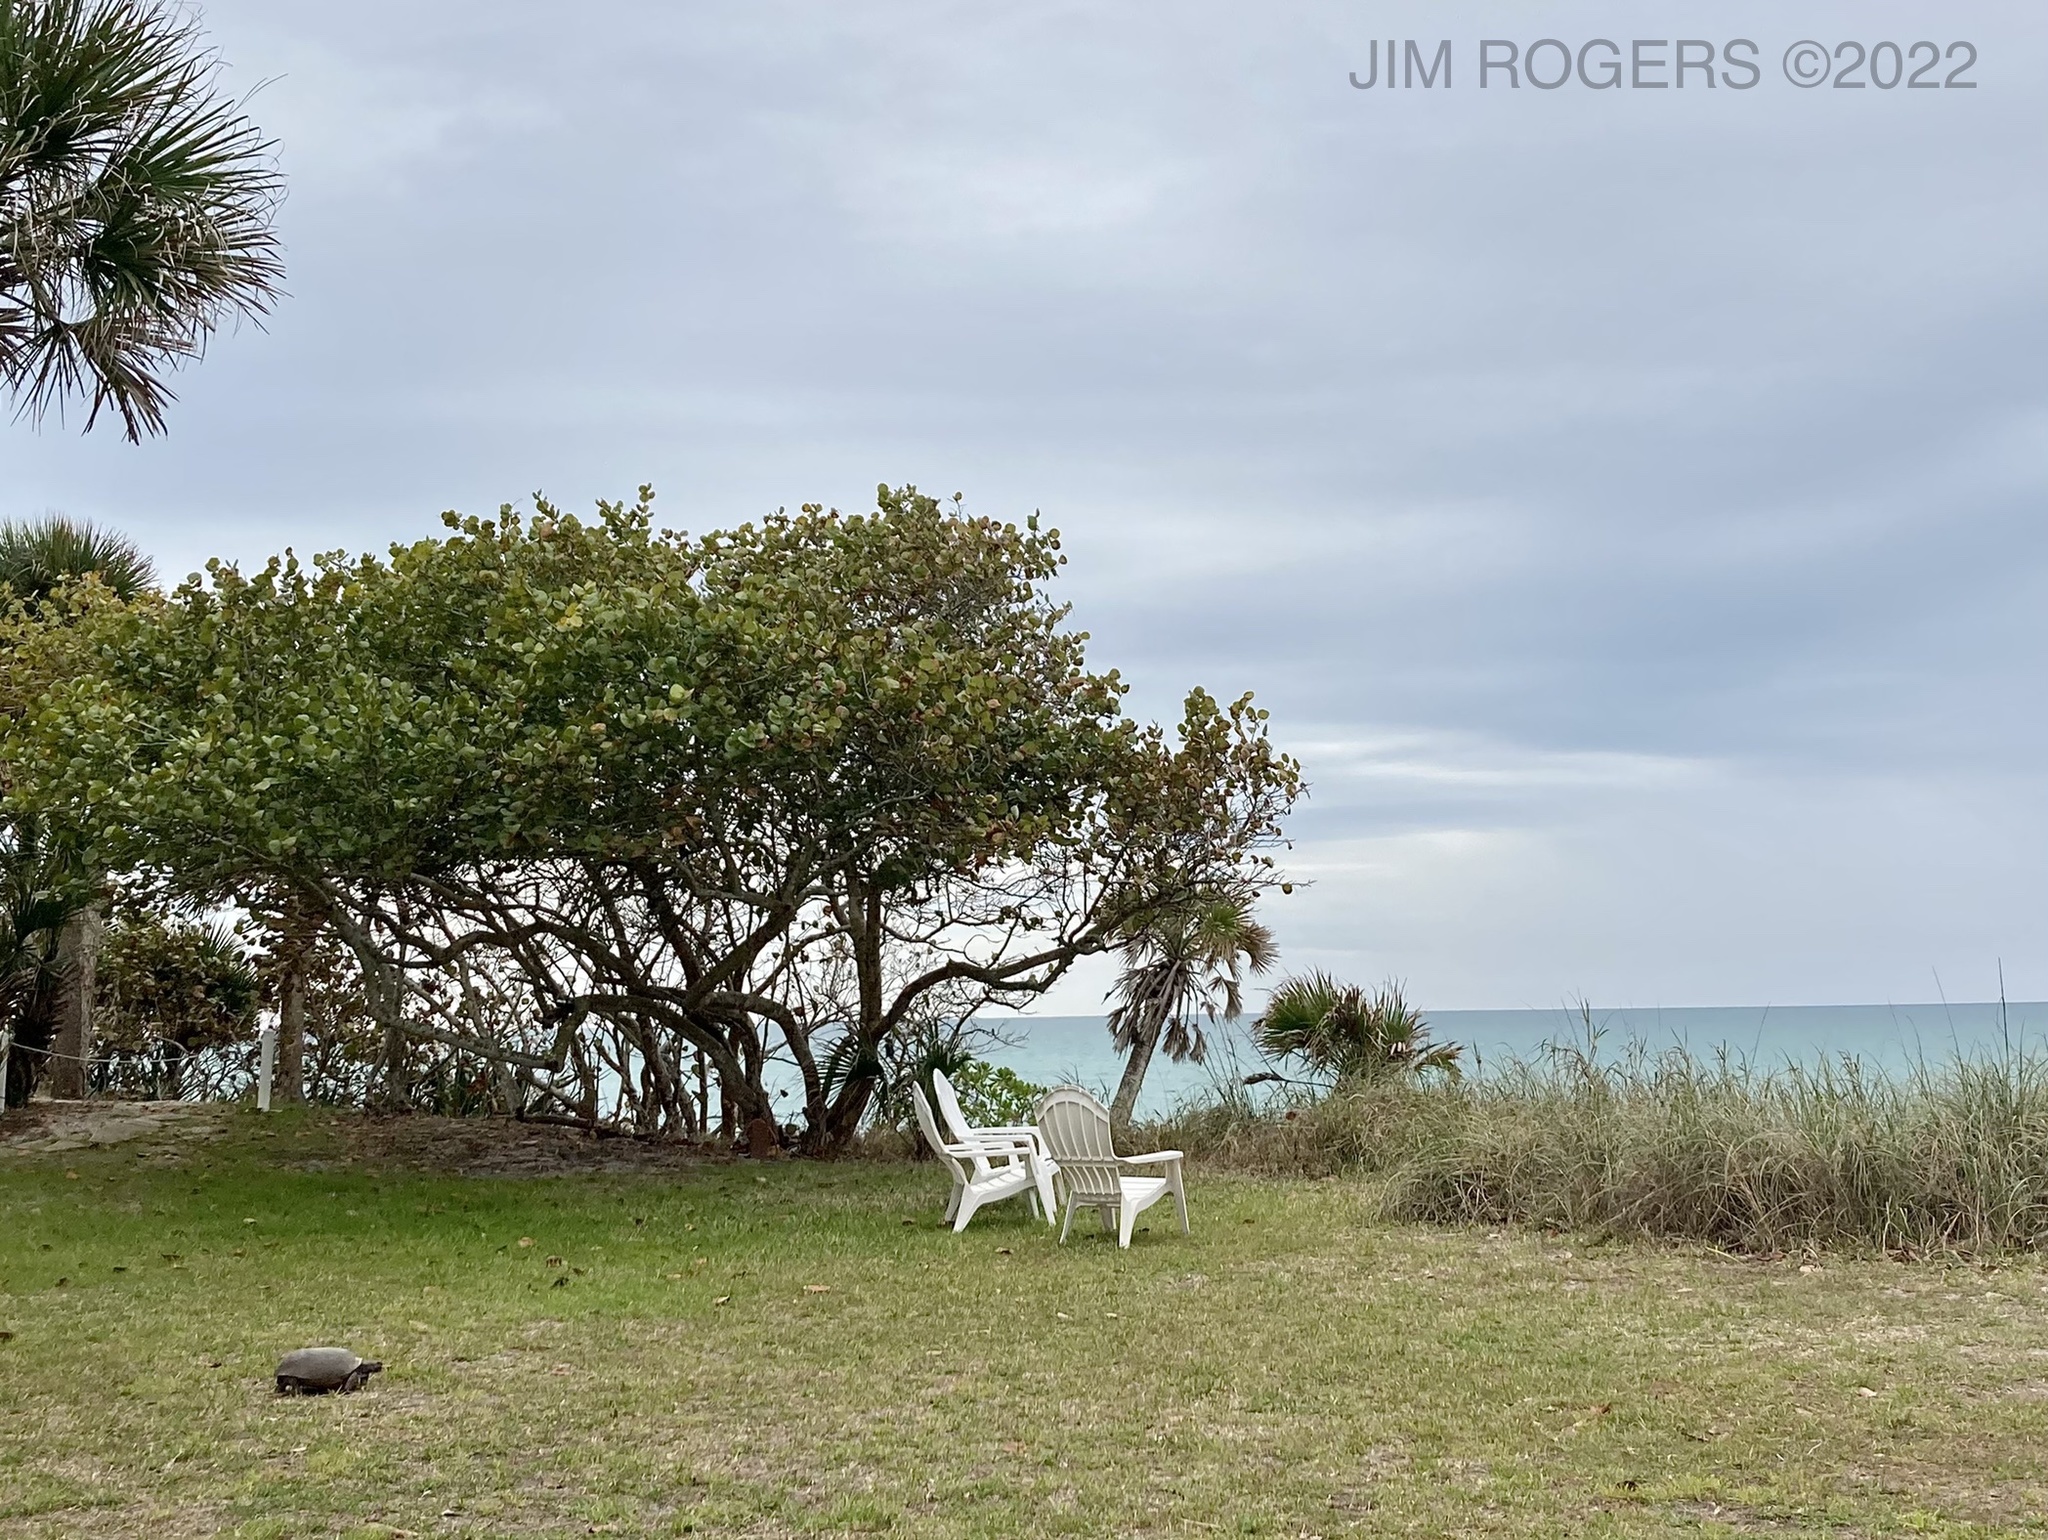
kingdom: Animalia
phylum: Chordata
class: Testudines
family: Testudinidae
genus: Gopherus
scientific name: Gopherus polyphemus
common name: Florida gopher tortoise
